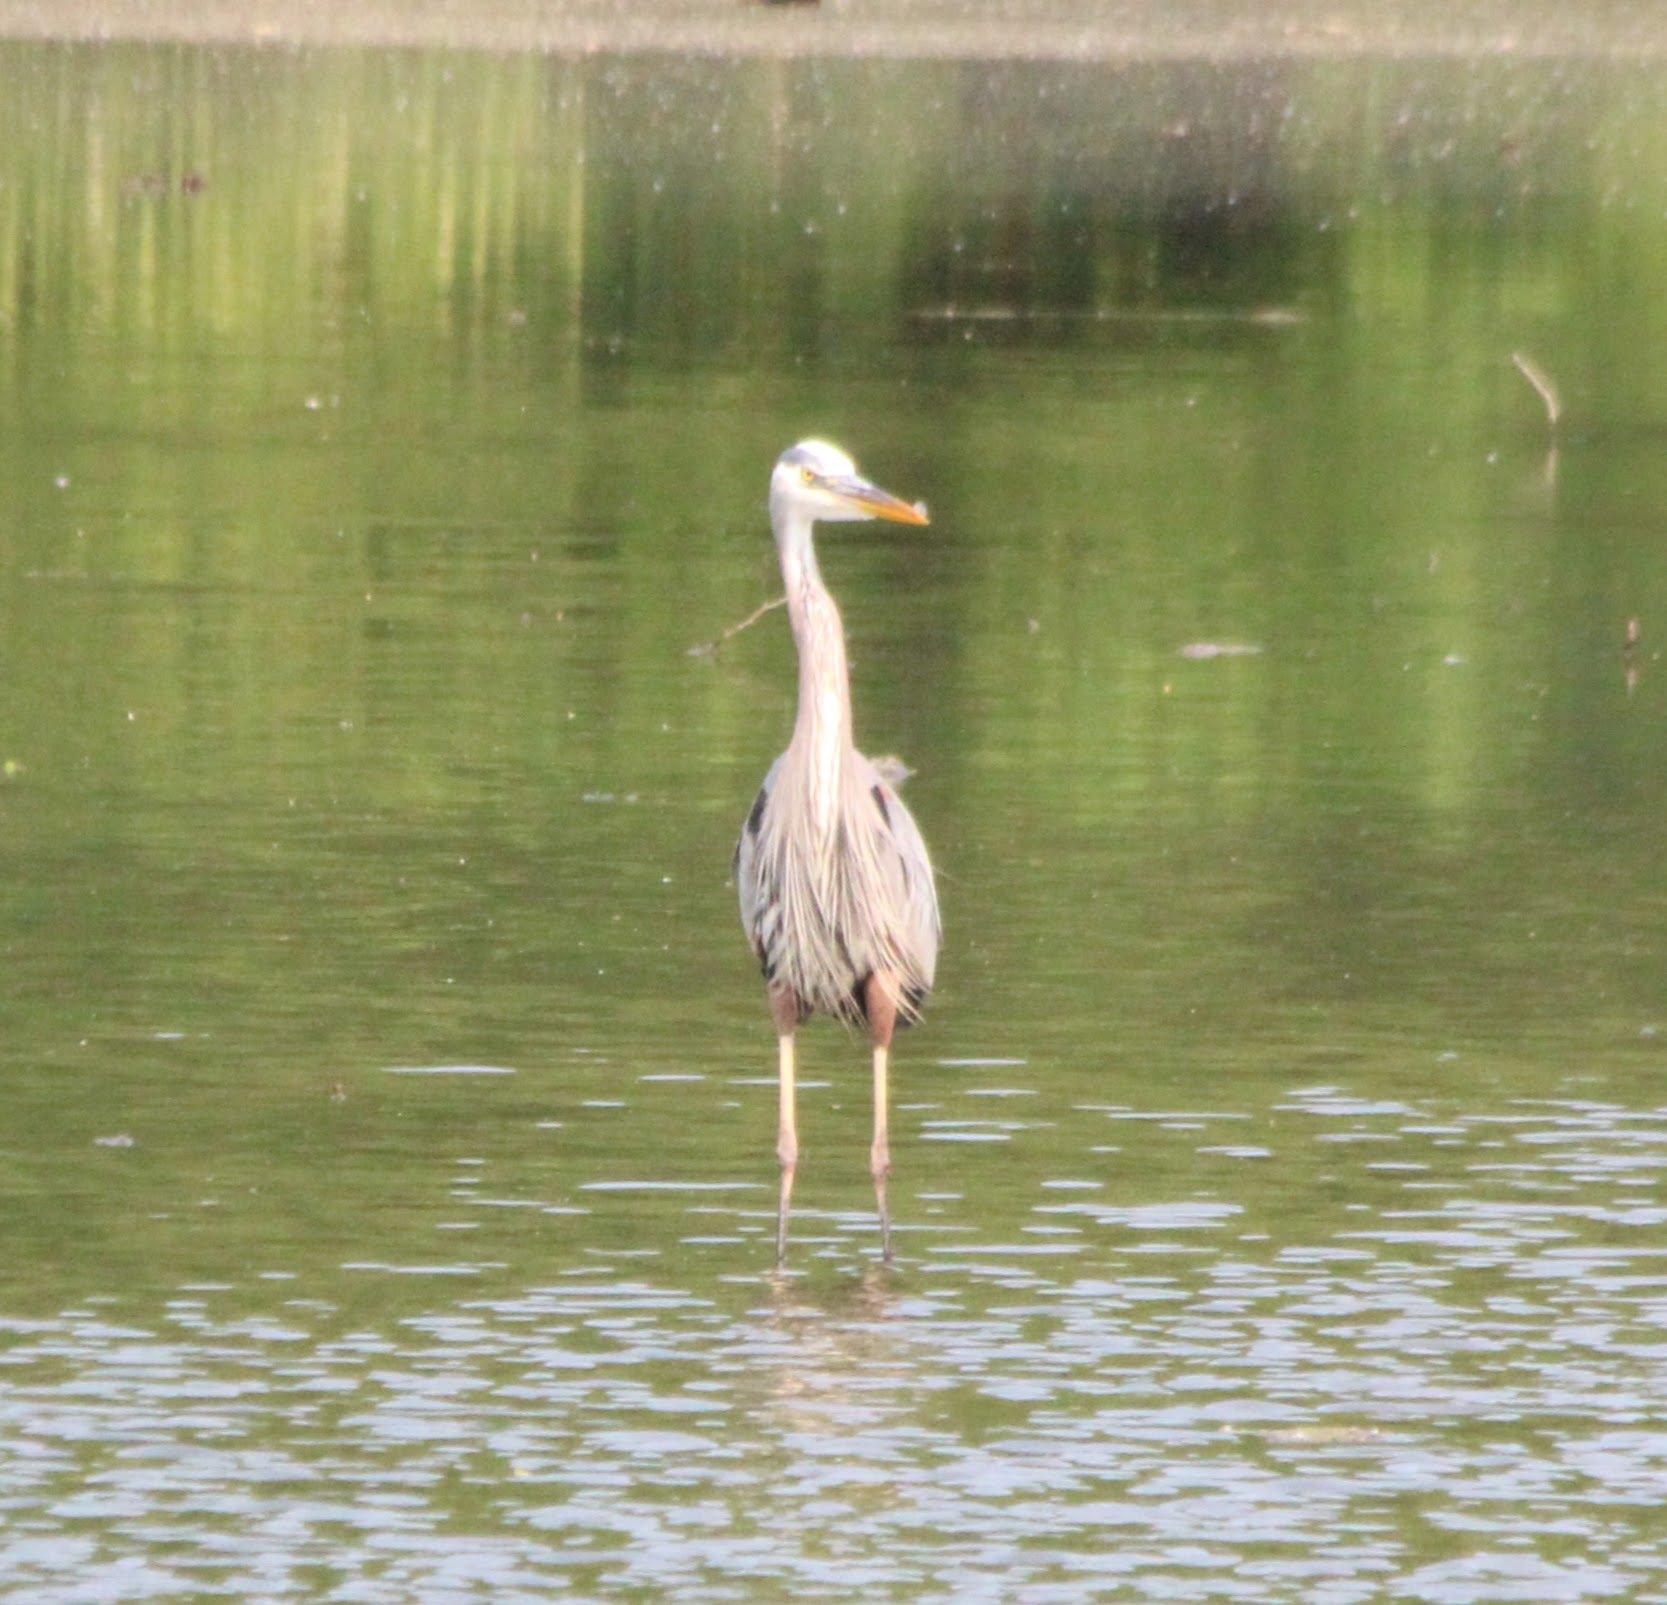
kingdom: Animalia
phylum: Chordata
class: Aves
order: Pelecaniformes
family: Ardeidae
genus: Ardea
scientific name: Ardea herodias
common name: Great blue heron
